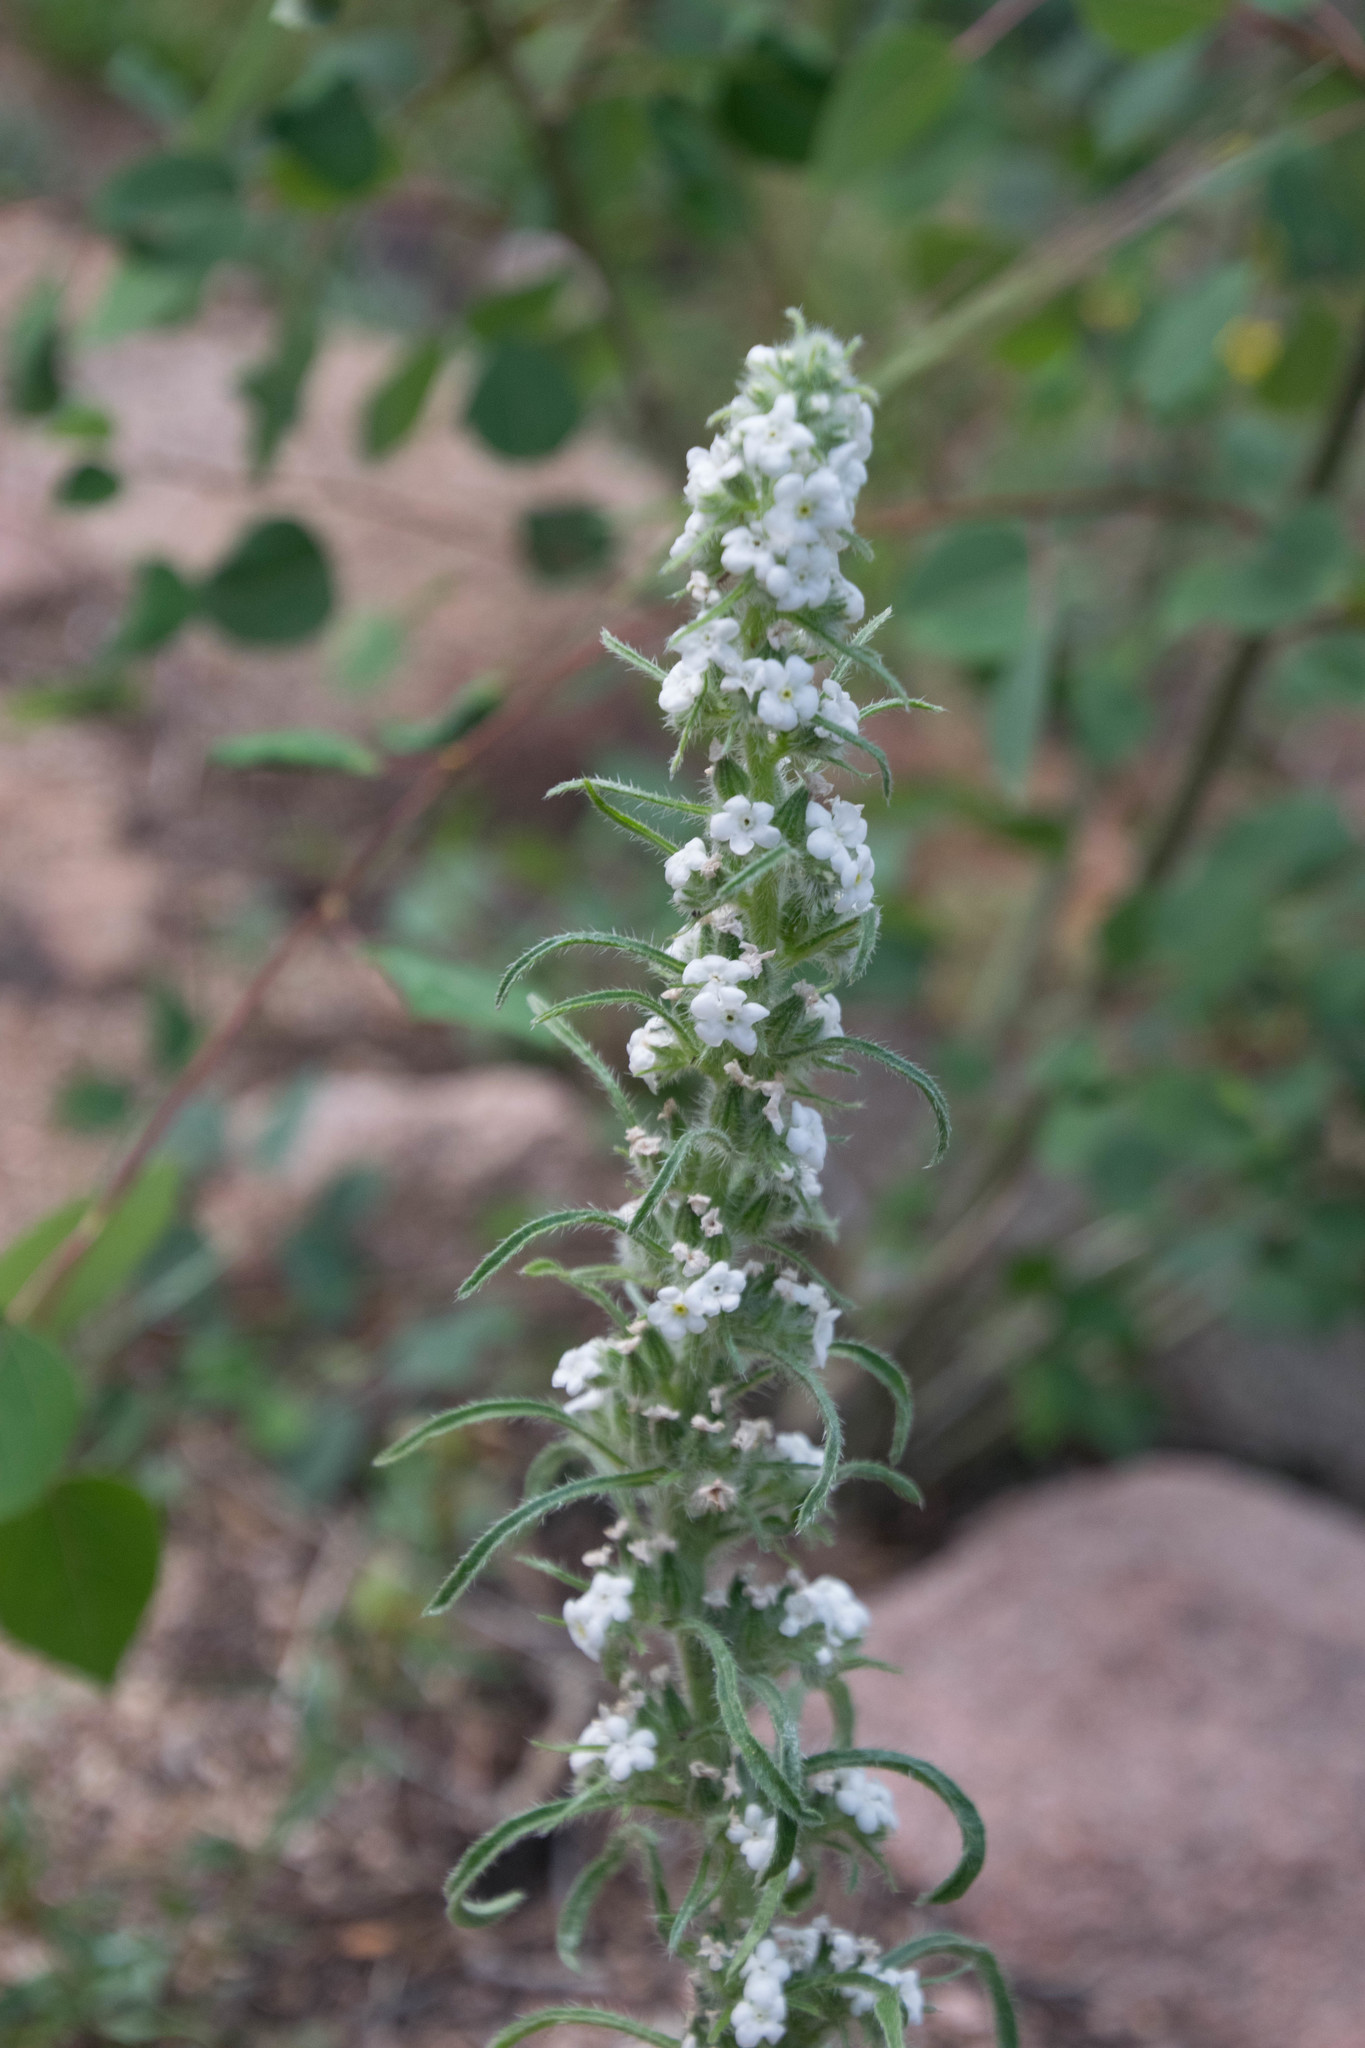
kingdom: Plantae
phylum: Tracheophyta
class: Magnoliopsida
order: Boraginales
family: Boraginaceae
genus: Oreocarya
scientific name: Oreocarya virgata
